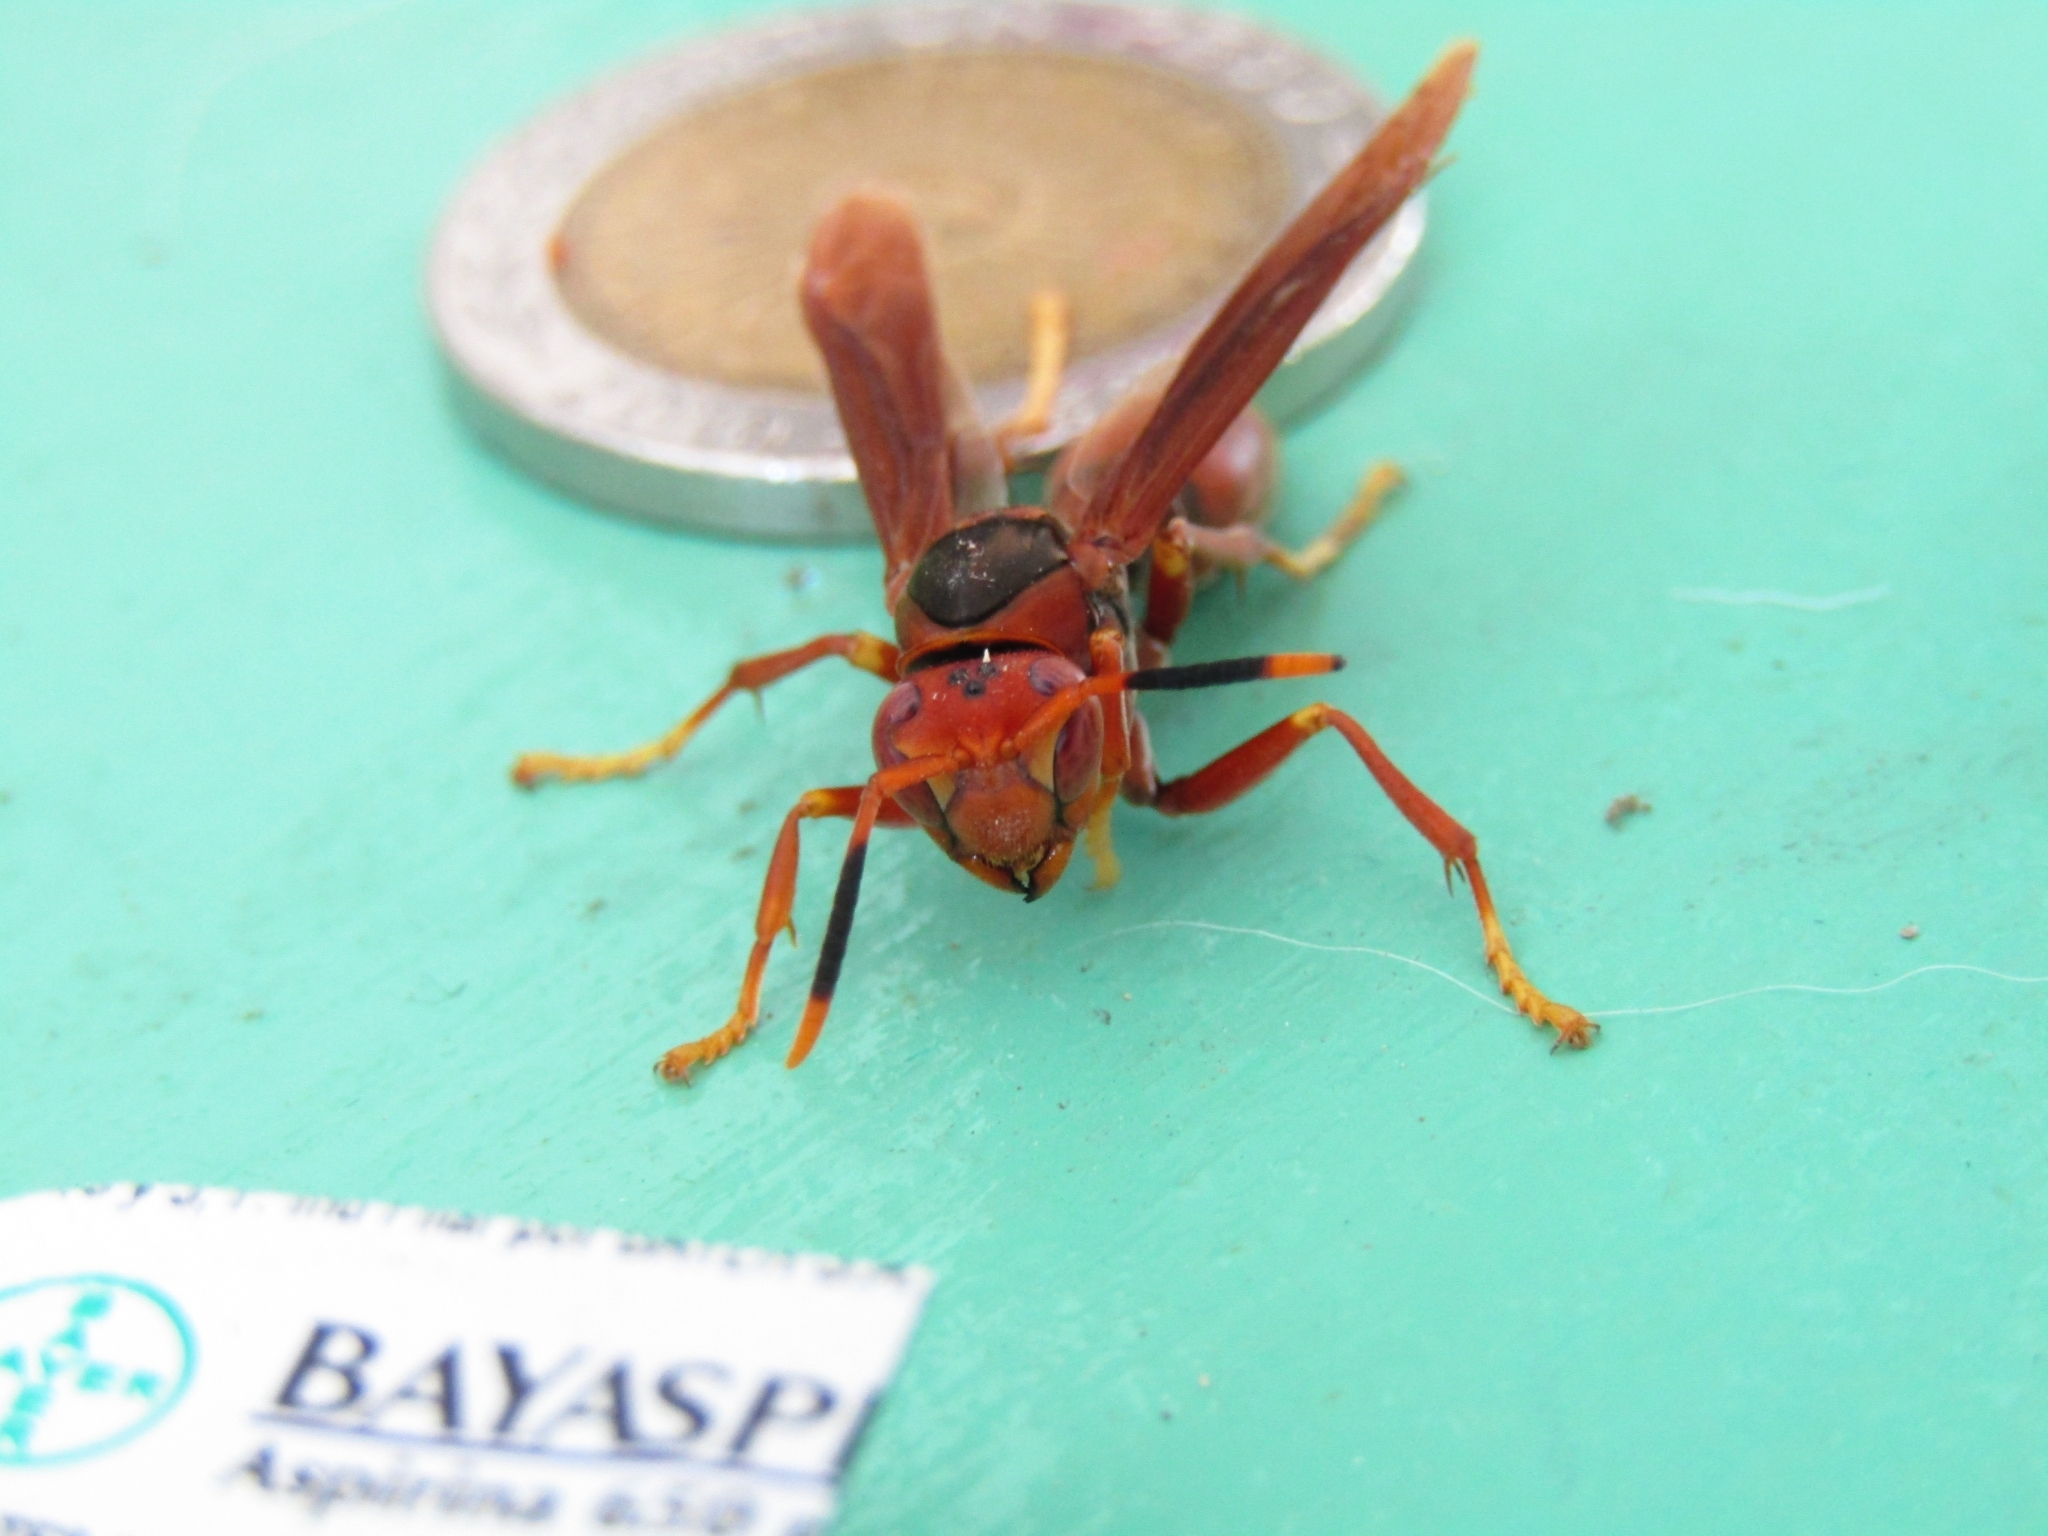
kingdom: Animalia
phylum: Arthropoda
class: Insecta
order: Hymenoptera
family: Pompilidae
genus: Aphanilopterus
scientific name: Aphanilopterus
